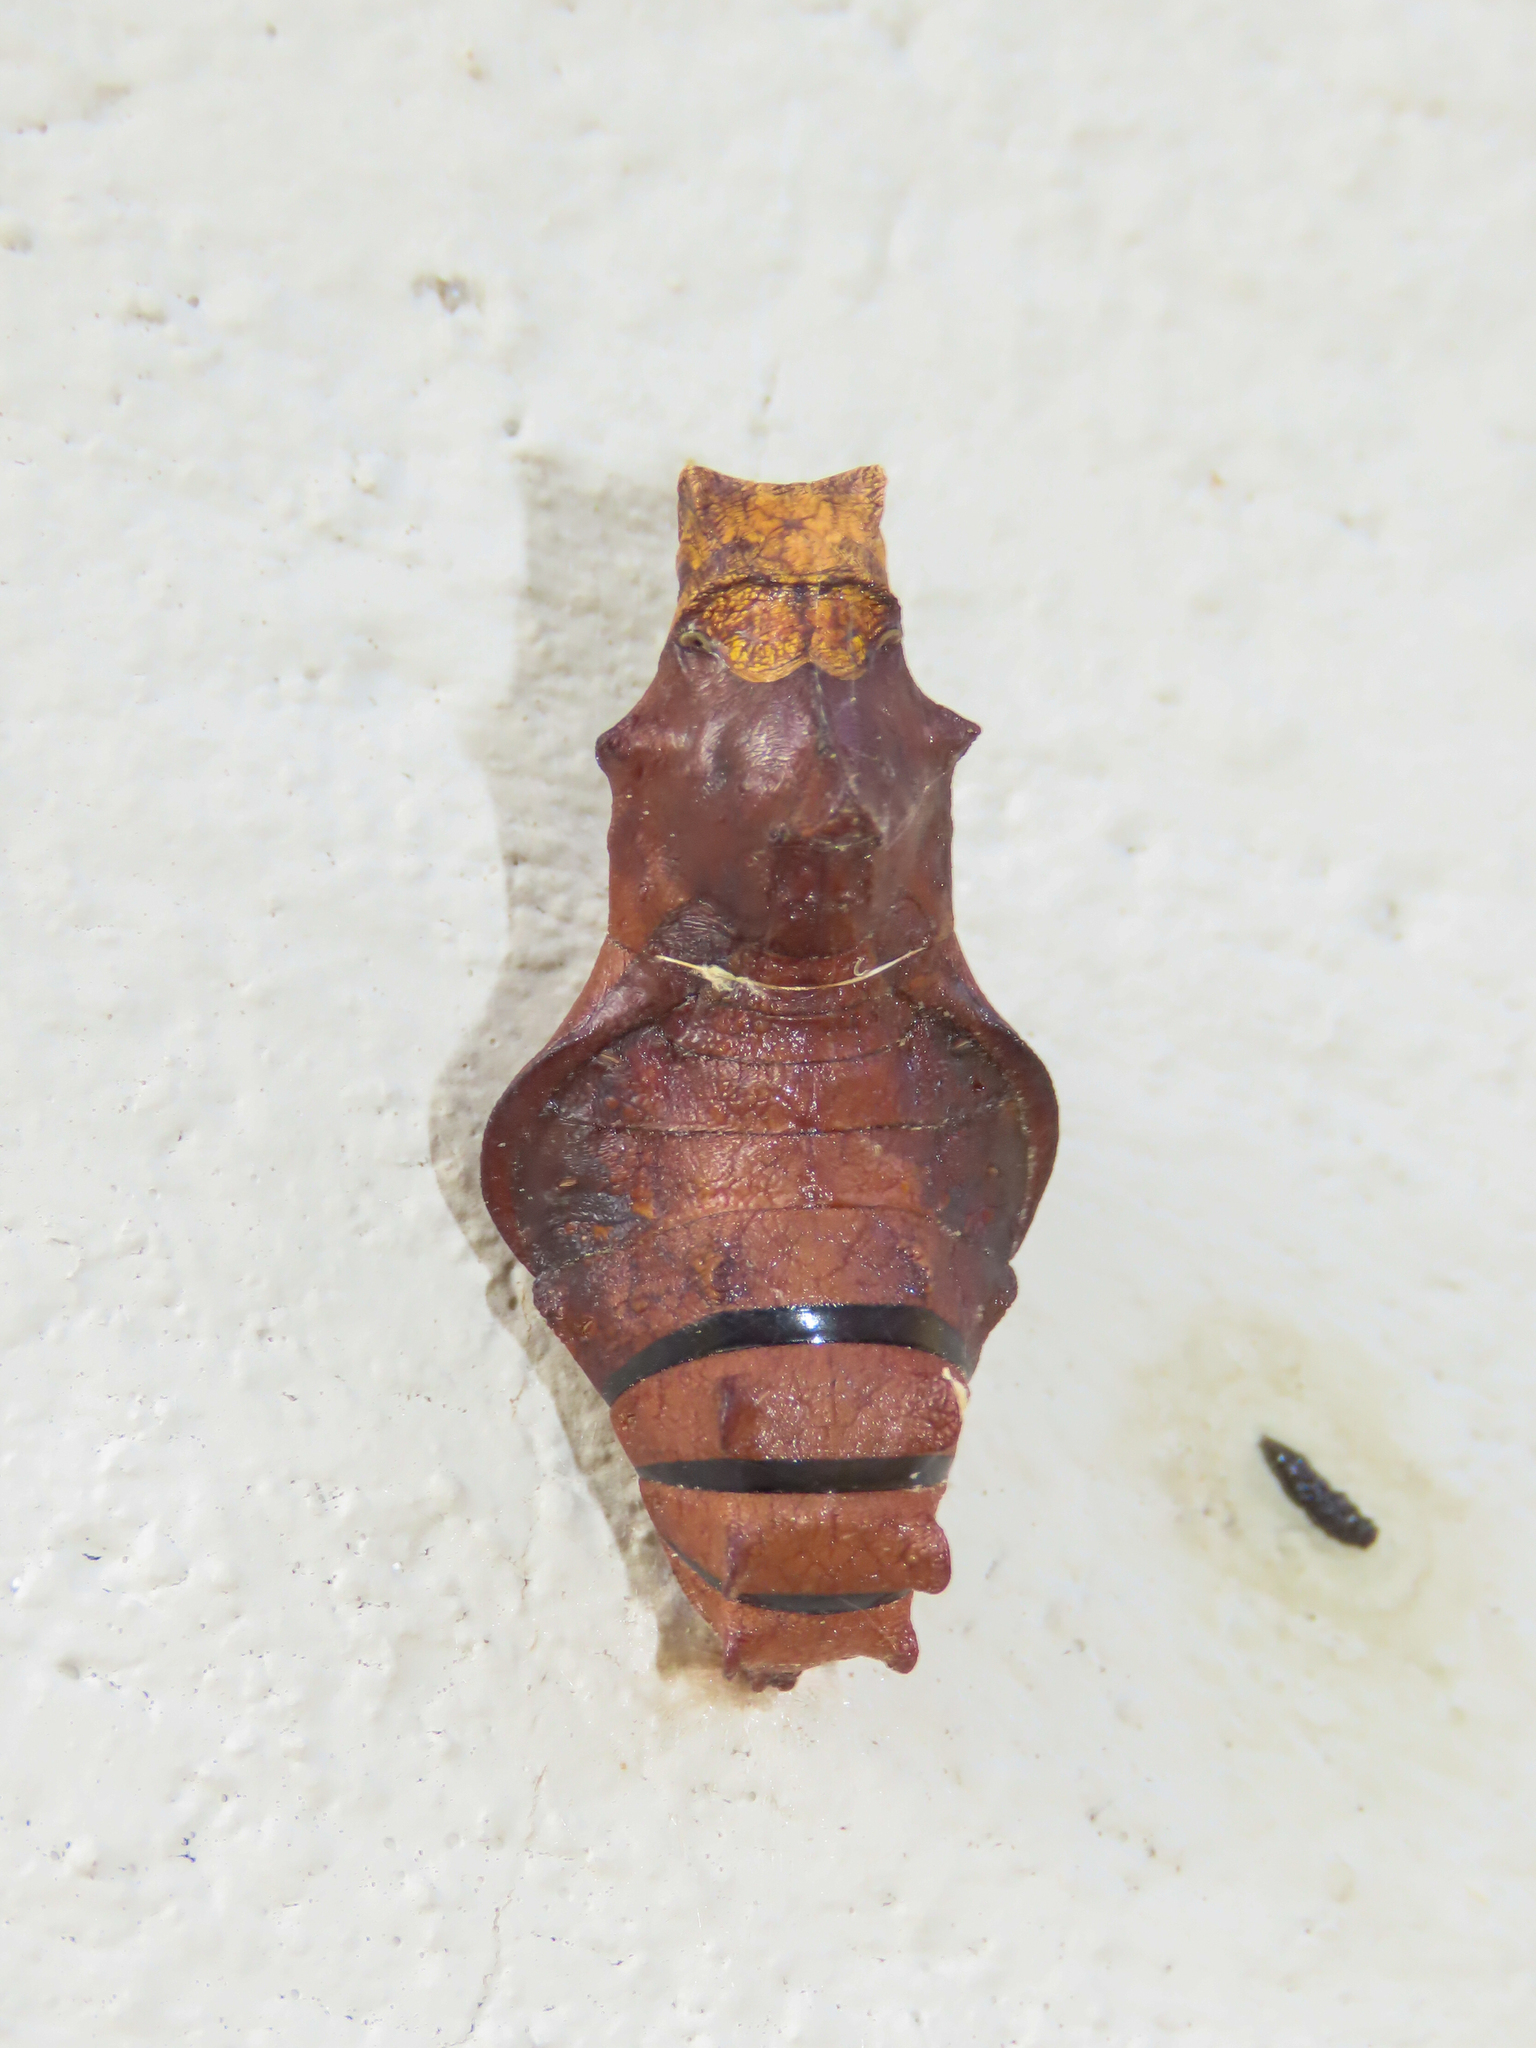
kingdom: Animalia
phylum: Arthropoda
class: Insecta
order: Lepidoptera
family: Papilionidae
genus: Battus
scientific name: Battus philenor
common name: Pipevine swallowtail
